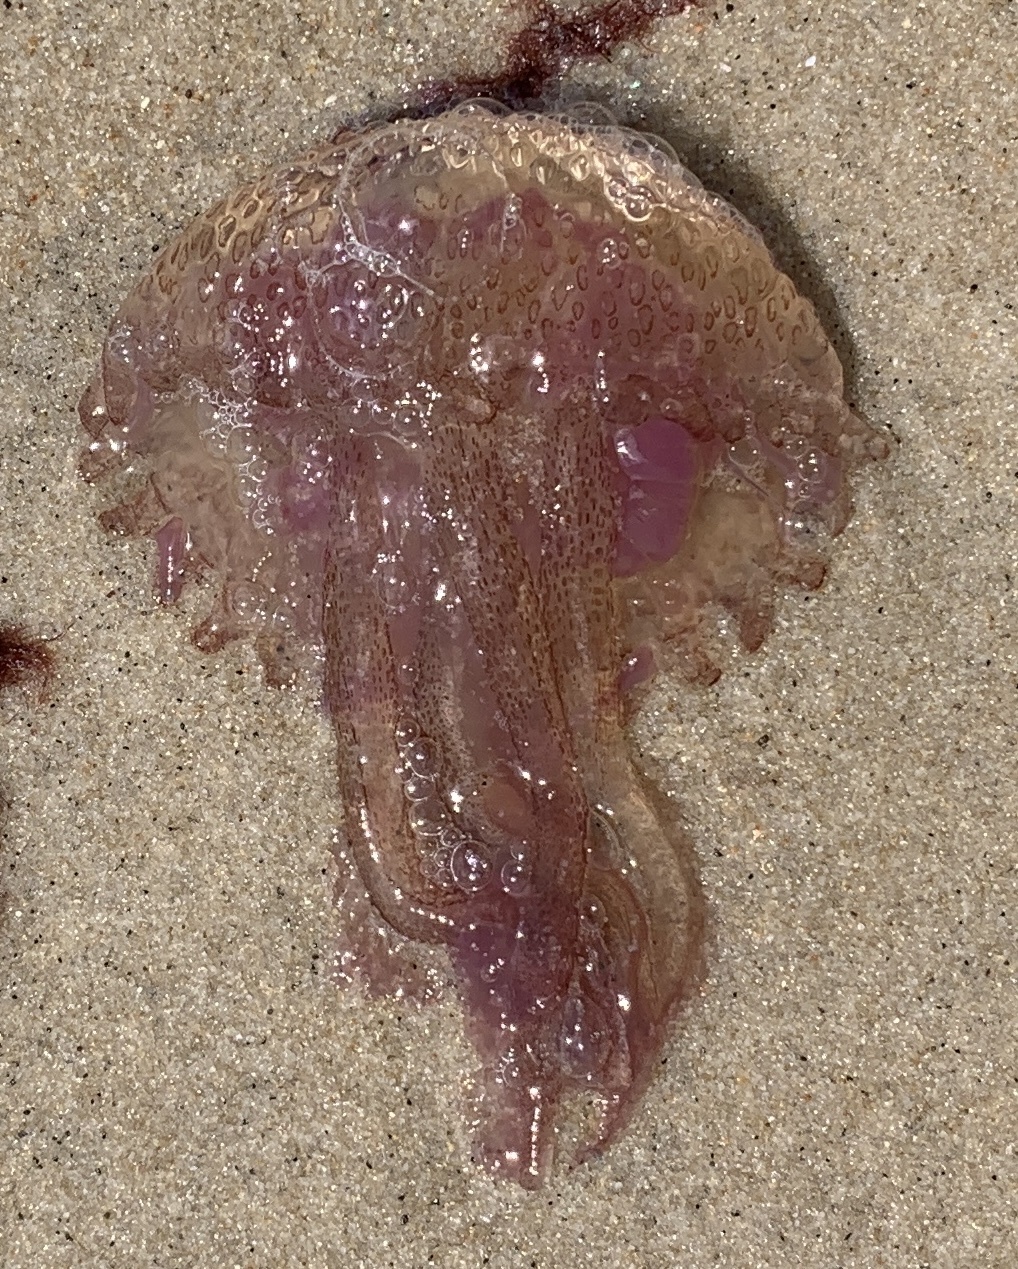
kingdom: Animalia
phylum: Cnidaria
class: Scyphozoa
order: Semaeostomeae
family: Pelagiidae
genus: Pelagia
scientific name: Pelagia noctiluca
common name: Mauve stinger
